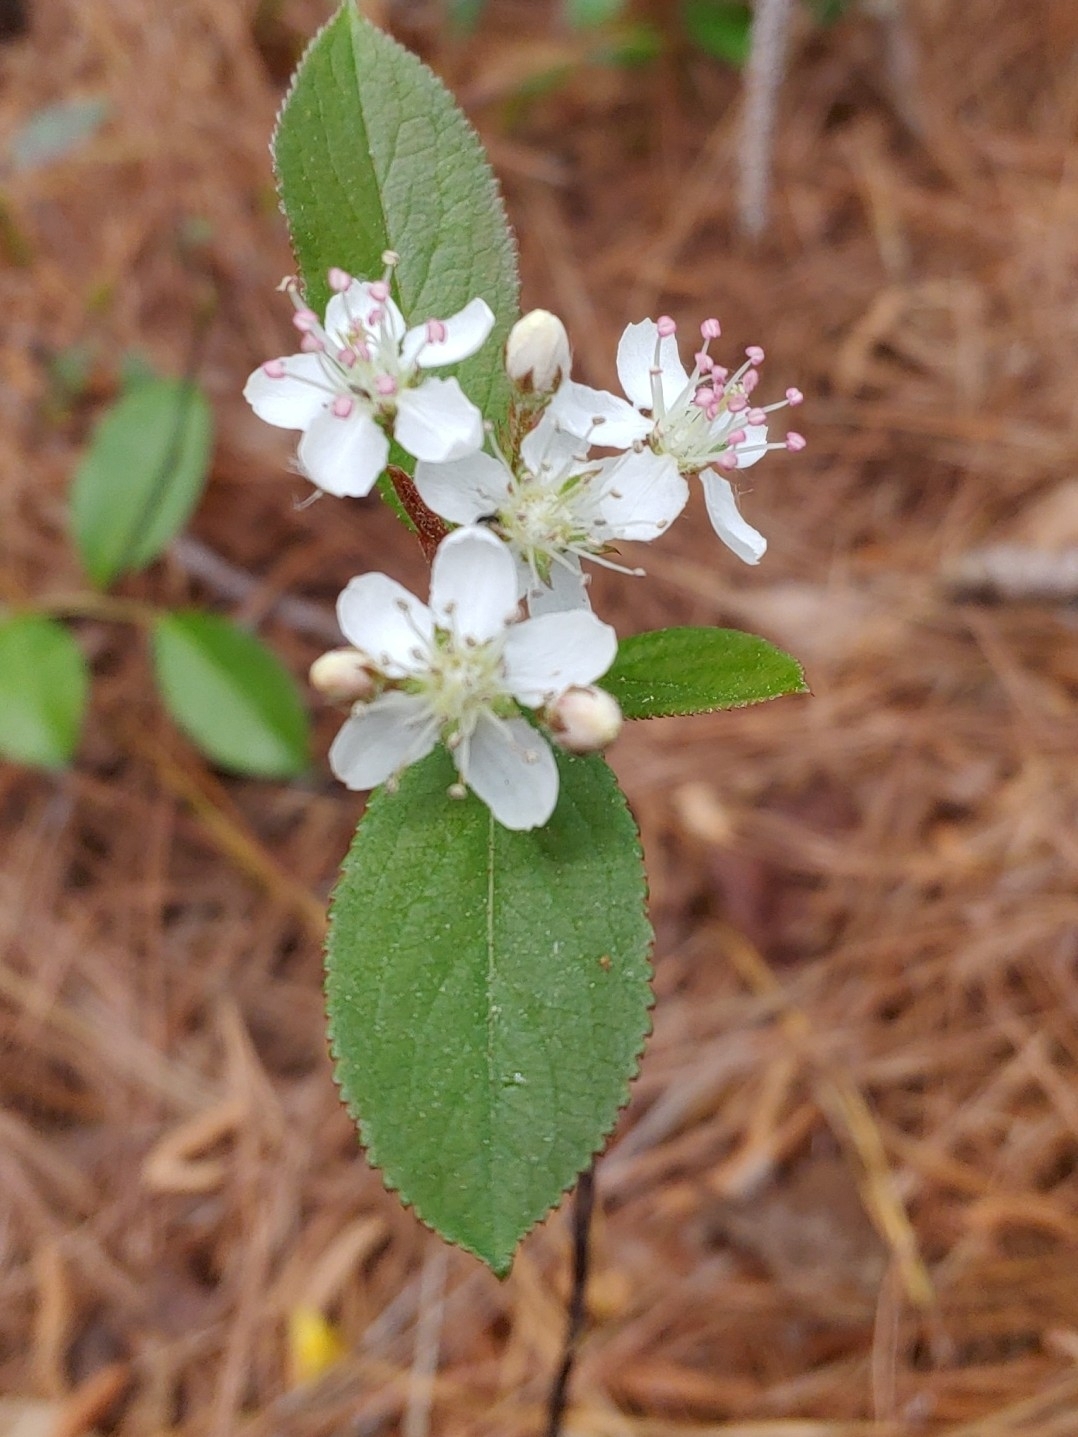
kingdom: Plantae
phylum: Tracheophyta
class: Magnoliopsida
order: Rosales
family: Rosaceae
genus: Aronia
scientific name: Aronia arbutifolia
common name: Red chokeberry
